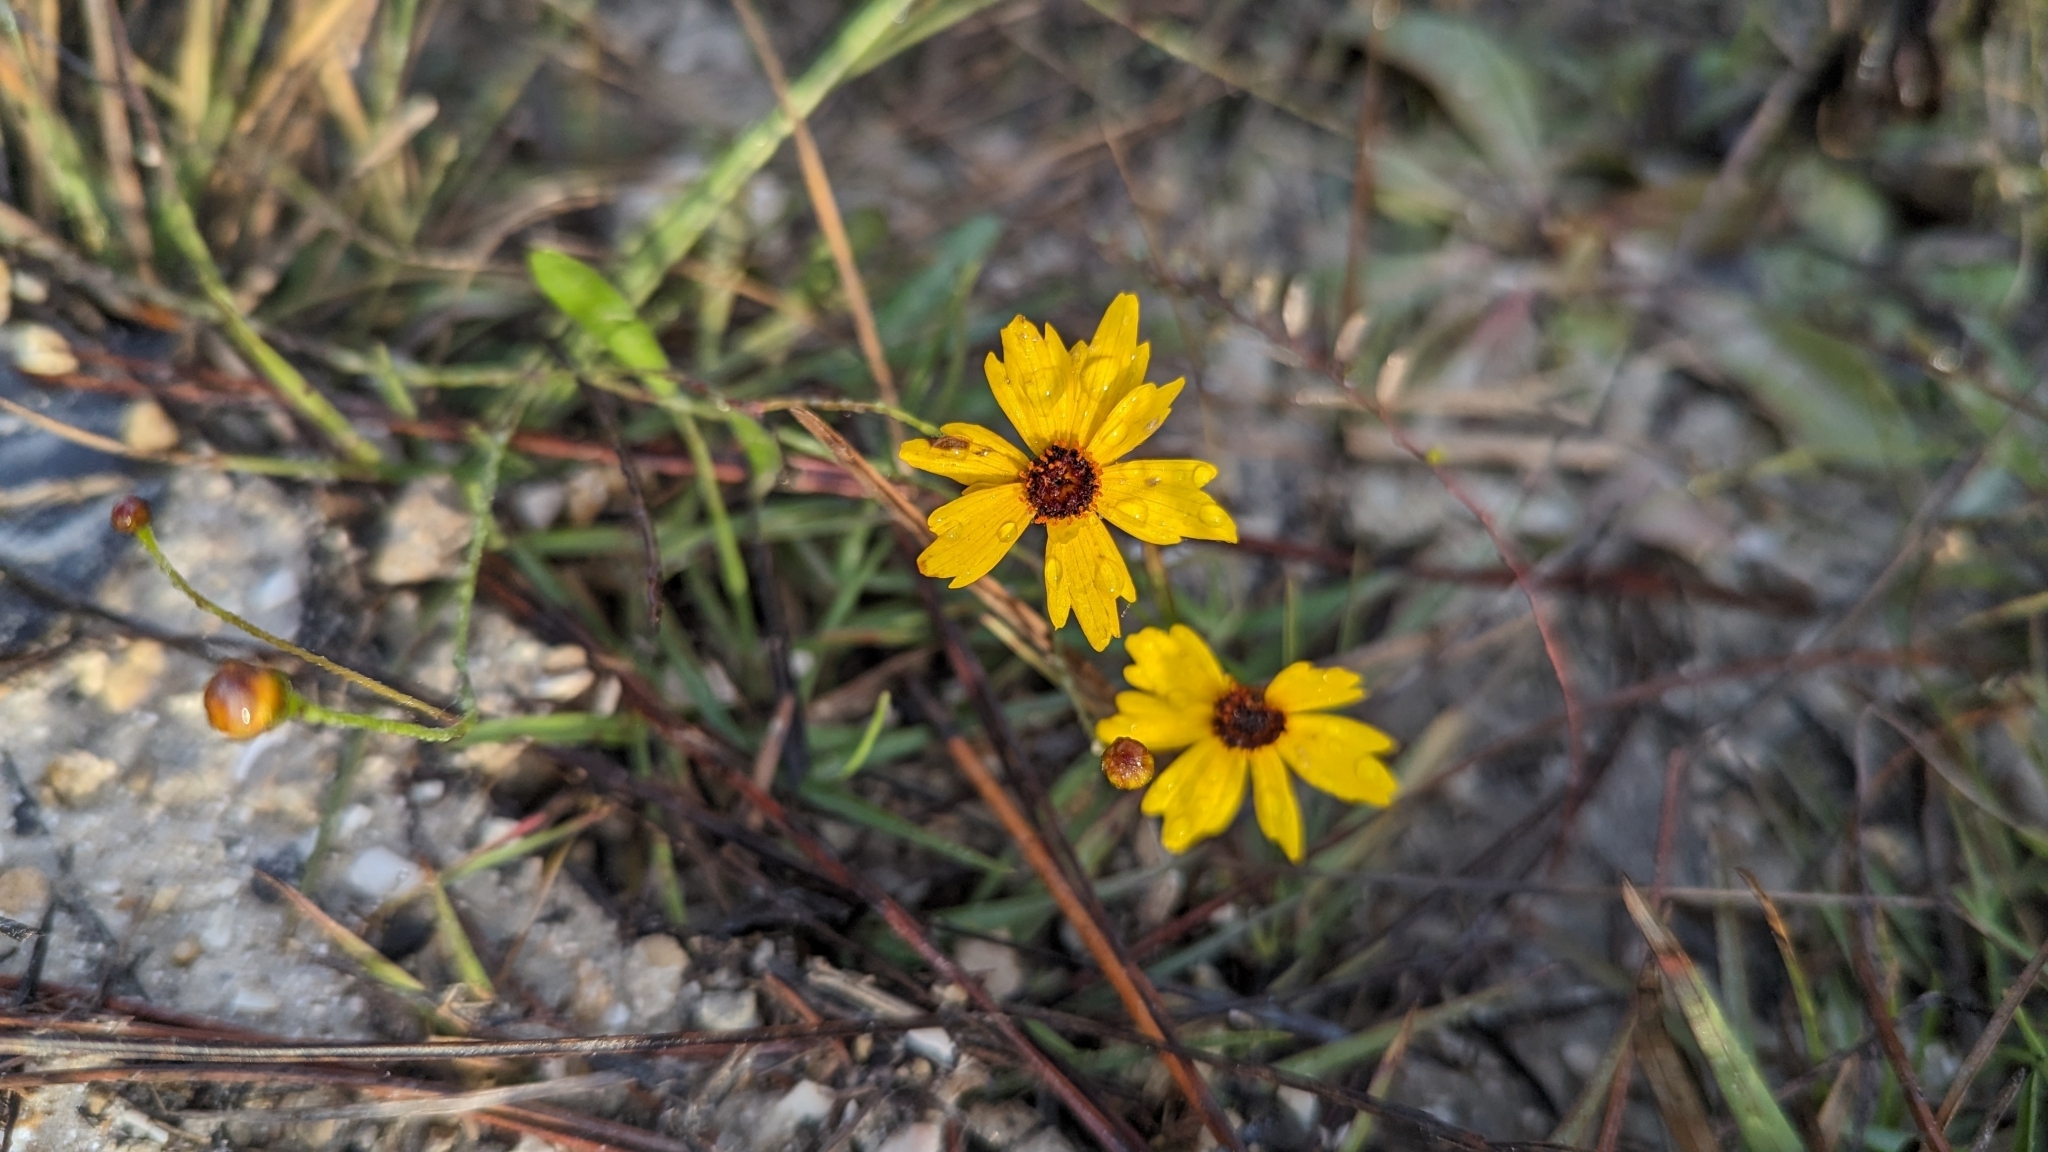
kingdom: Plantae
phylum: Tracheophyta
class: Magnoliopsida
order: Asterales
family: Asteraceae
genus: Coreopsis
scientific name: Coreopsis leavenworthii
